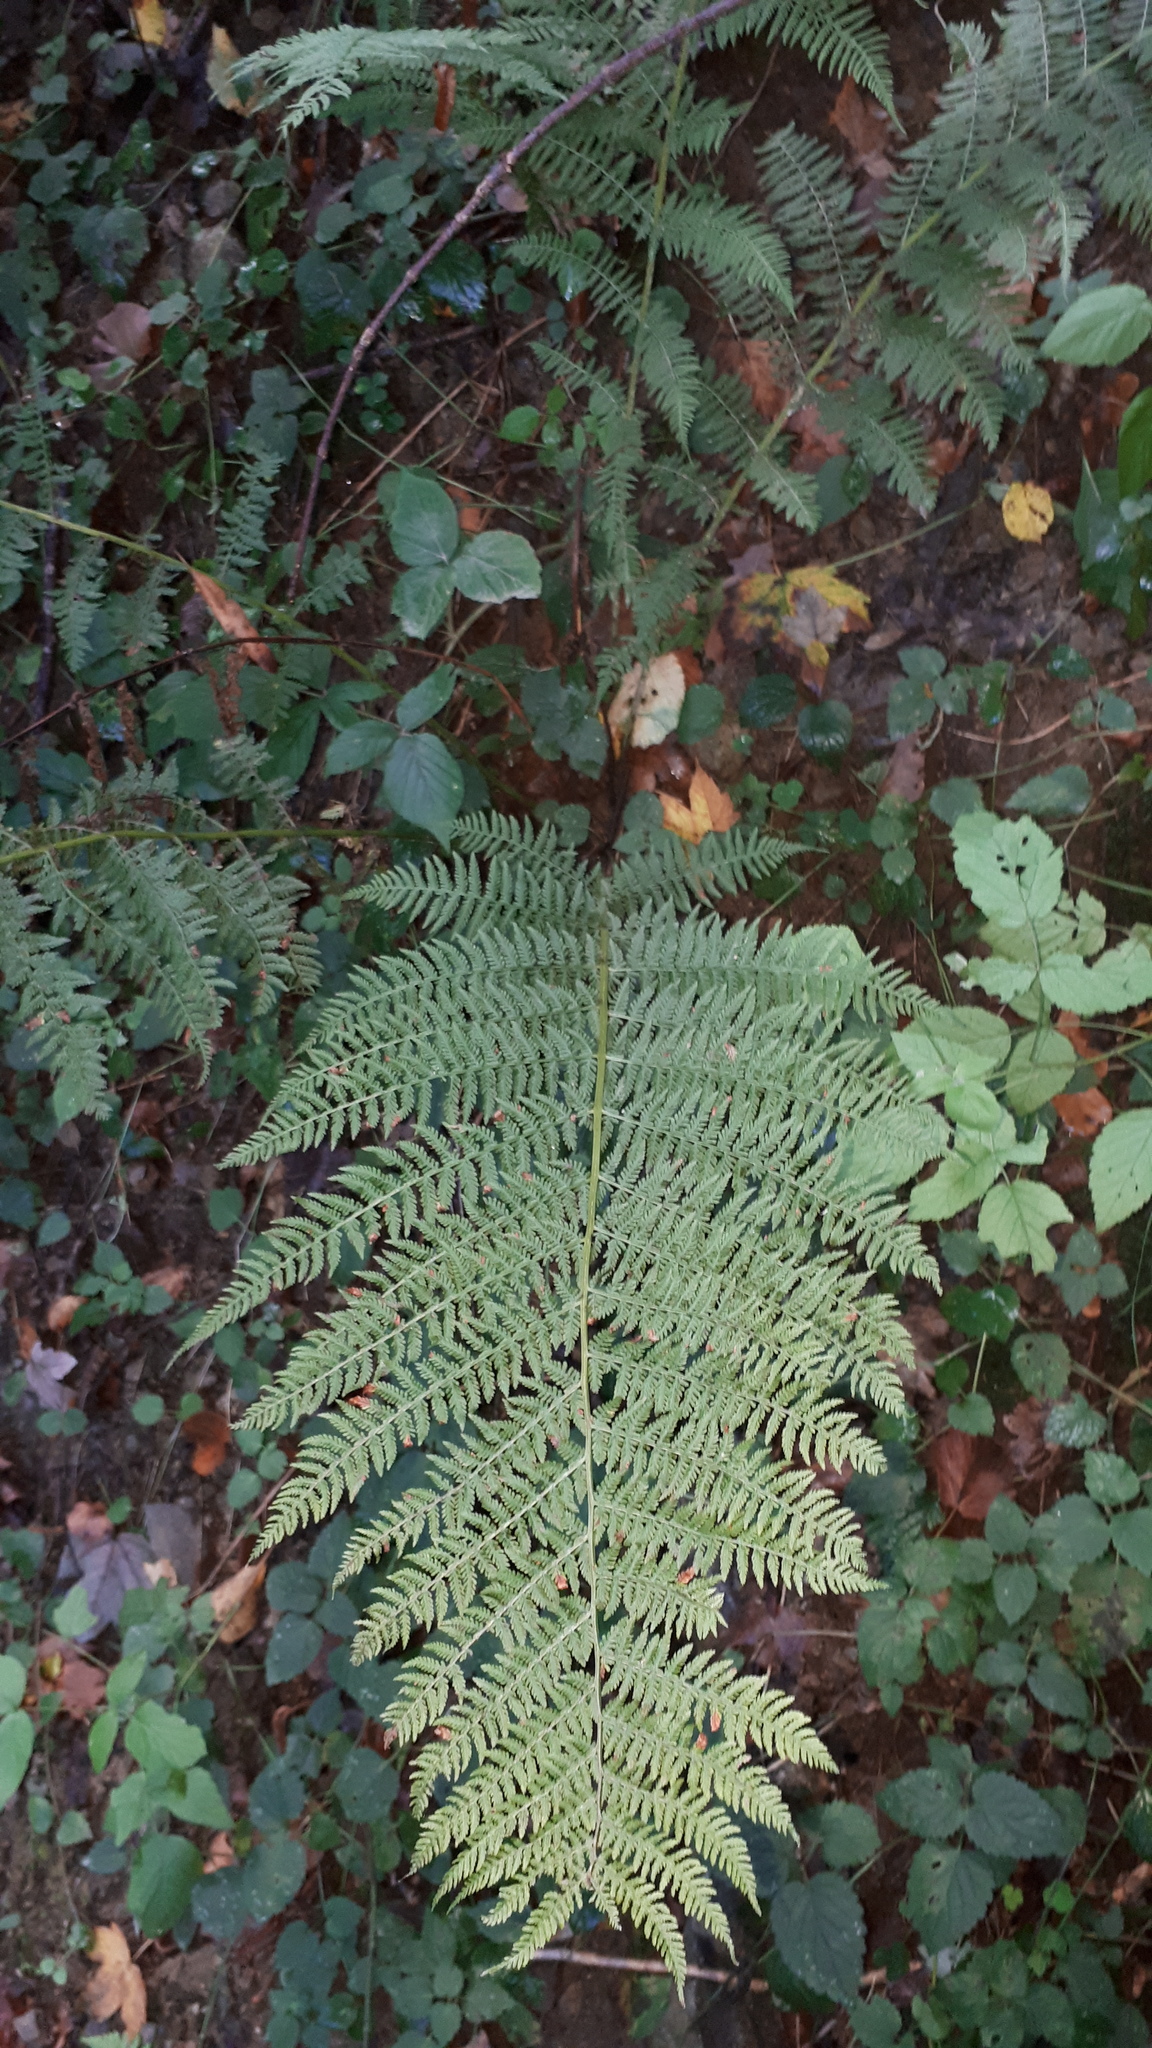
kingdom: Plantae
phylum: Tracheophyta
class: Polypodiopsida
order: Polypodiales
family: Athyriaceae
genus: Athyrium
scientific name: Athyrium filix-femina
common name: Lady fern
